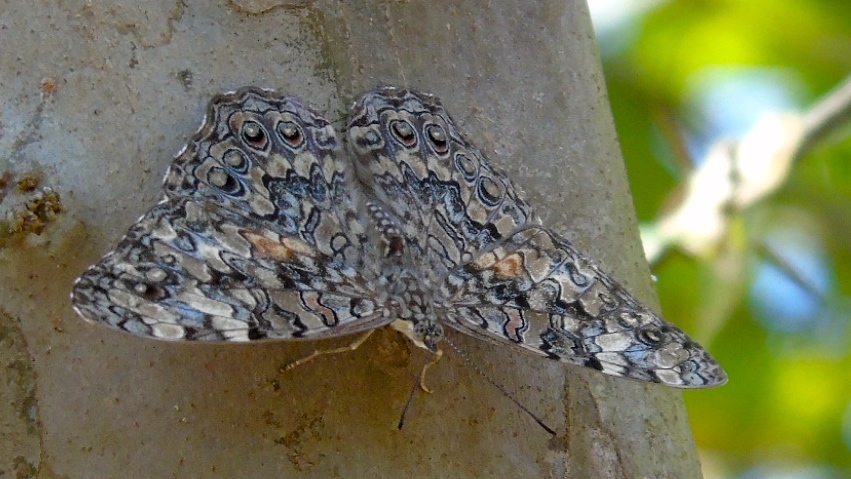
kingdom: Animalia
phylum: Arthropoda
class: Insecta
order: Lepidoptera
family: Nymphalidae
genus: Hamadryas
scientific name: Hamadryas februa
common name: Gray cracker
